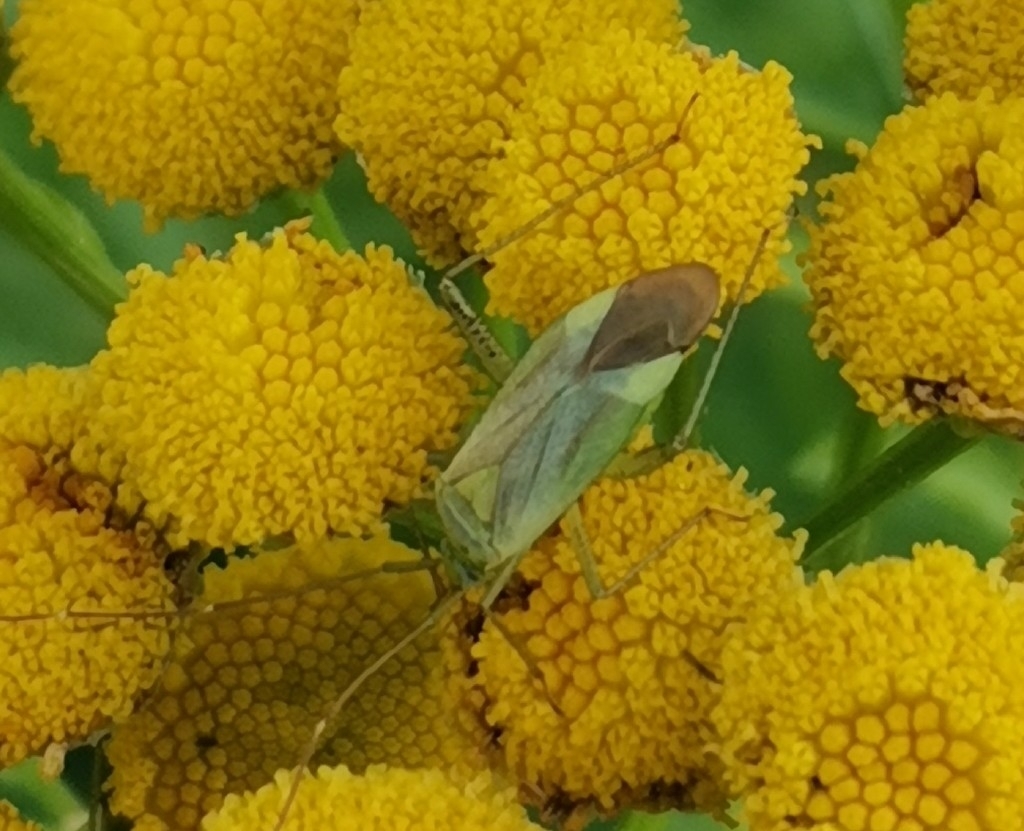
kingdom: Animalia
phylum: Arthropoda
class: Insecta
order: Hemiptera
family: Miridae
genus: Adelphocoris
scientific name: Adelphocoris quadripunctatus
